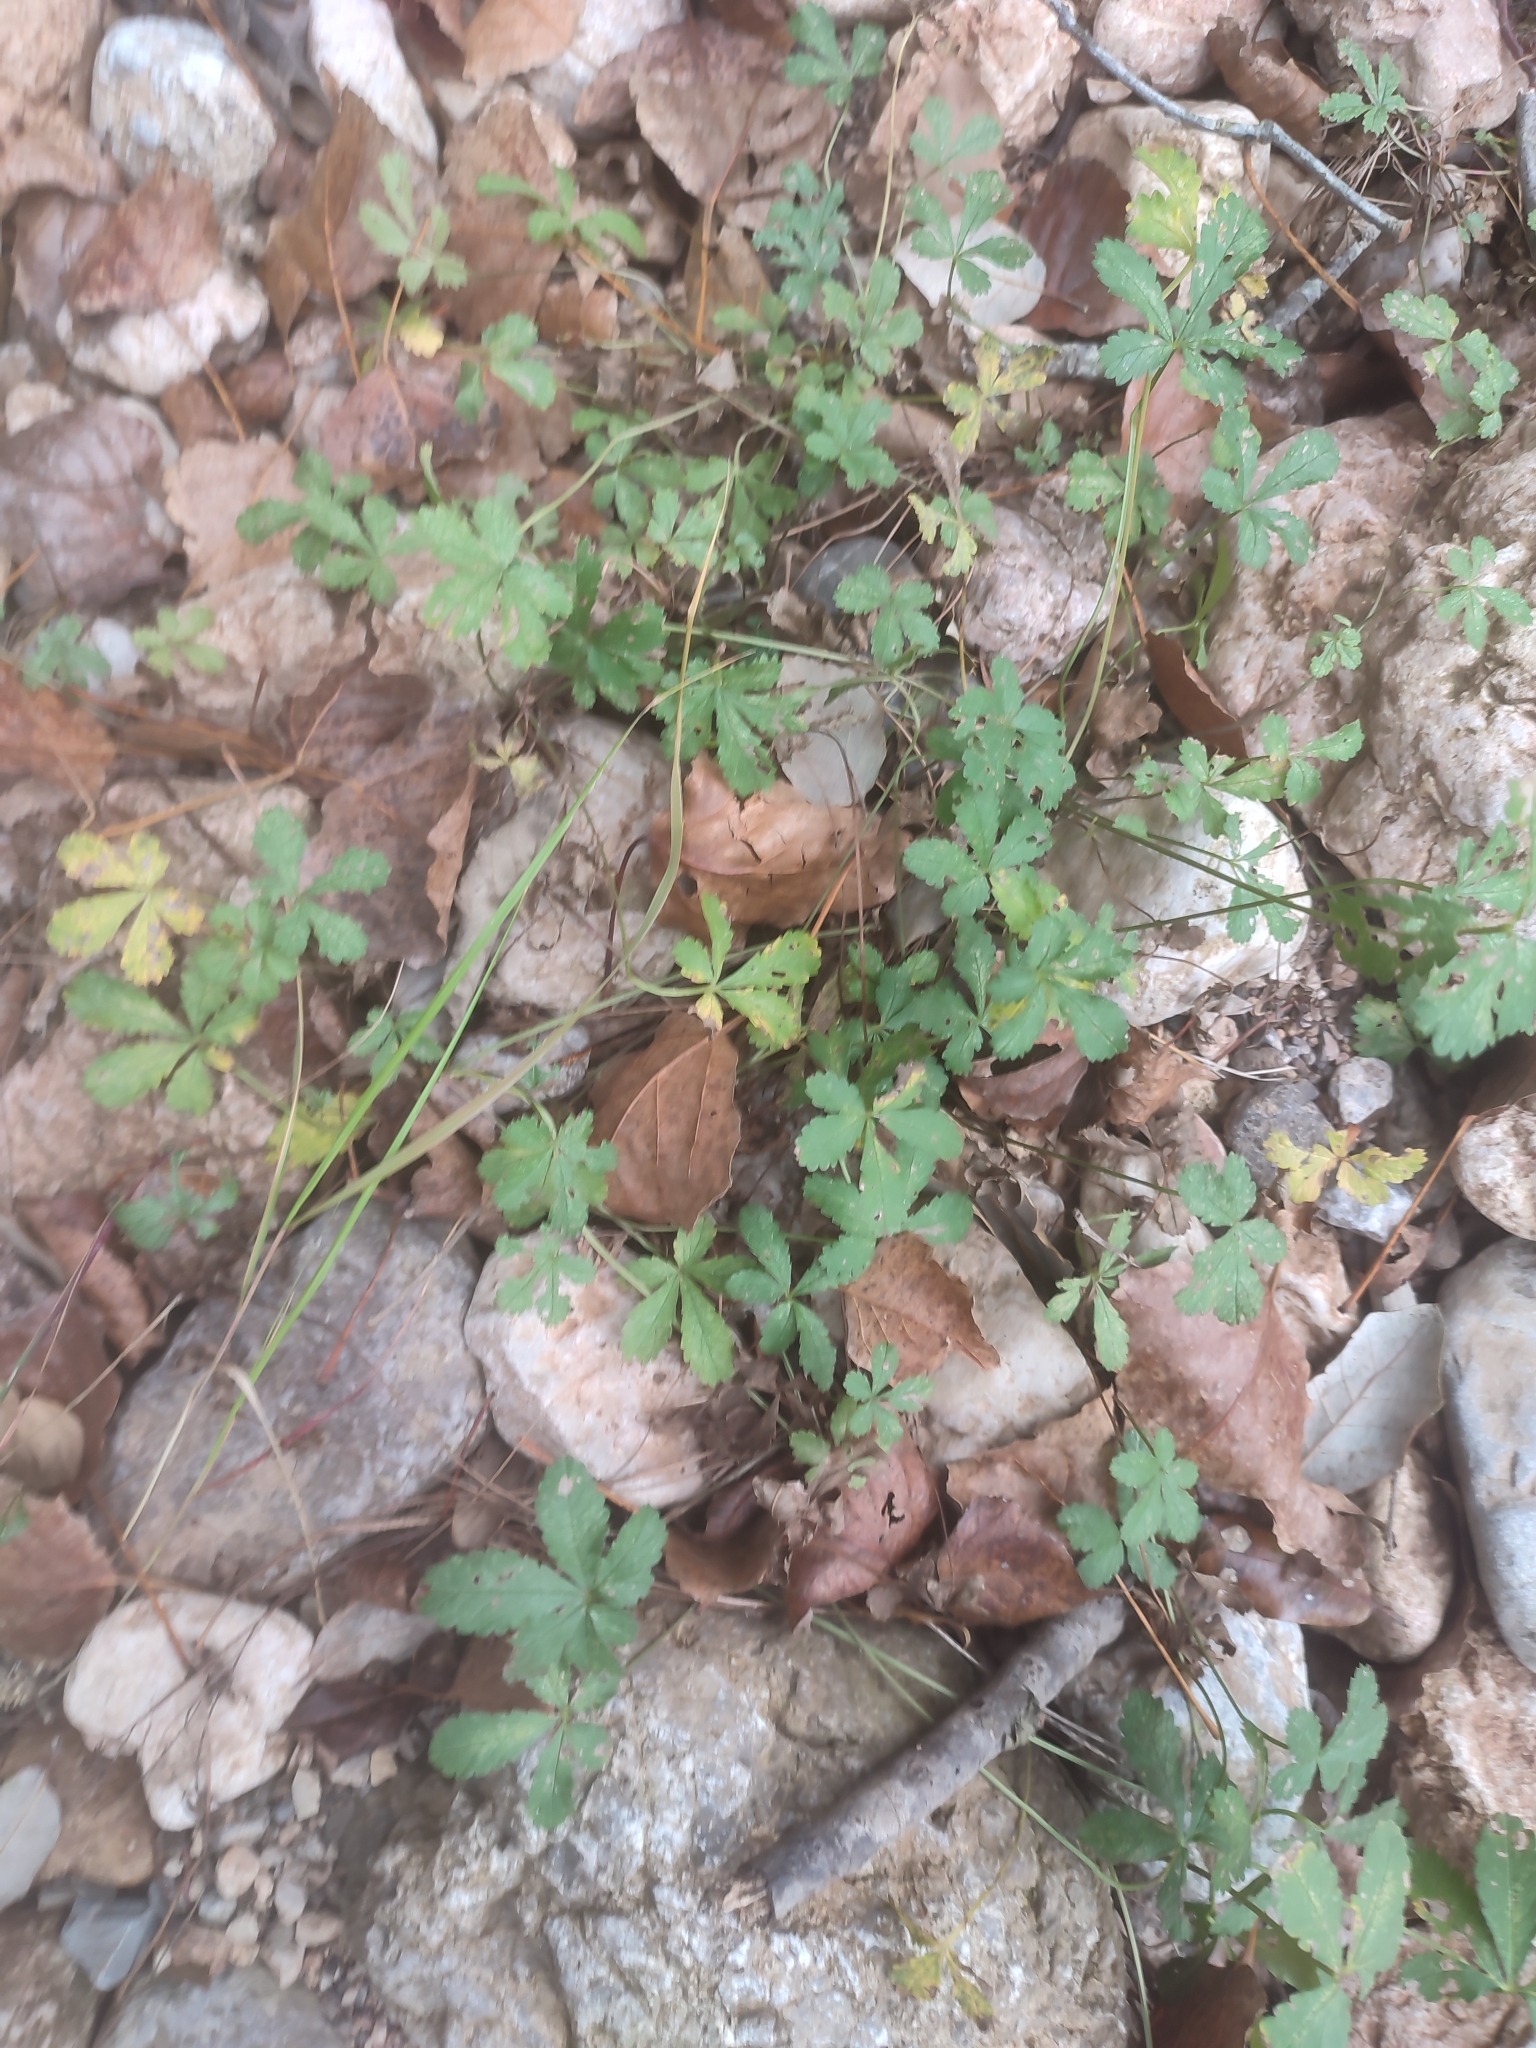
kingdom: Plantae
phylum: Tracheophyta
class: Magnoliopsida
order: Rosales
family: Rosaceae
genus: Potentilla
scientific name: Potentilla reptans
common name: Creeping cinquefoil
